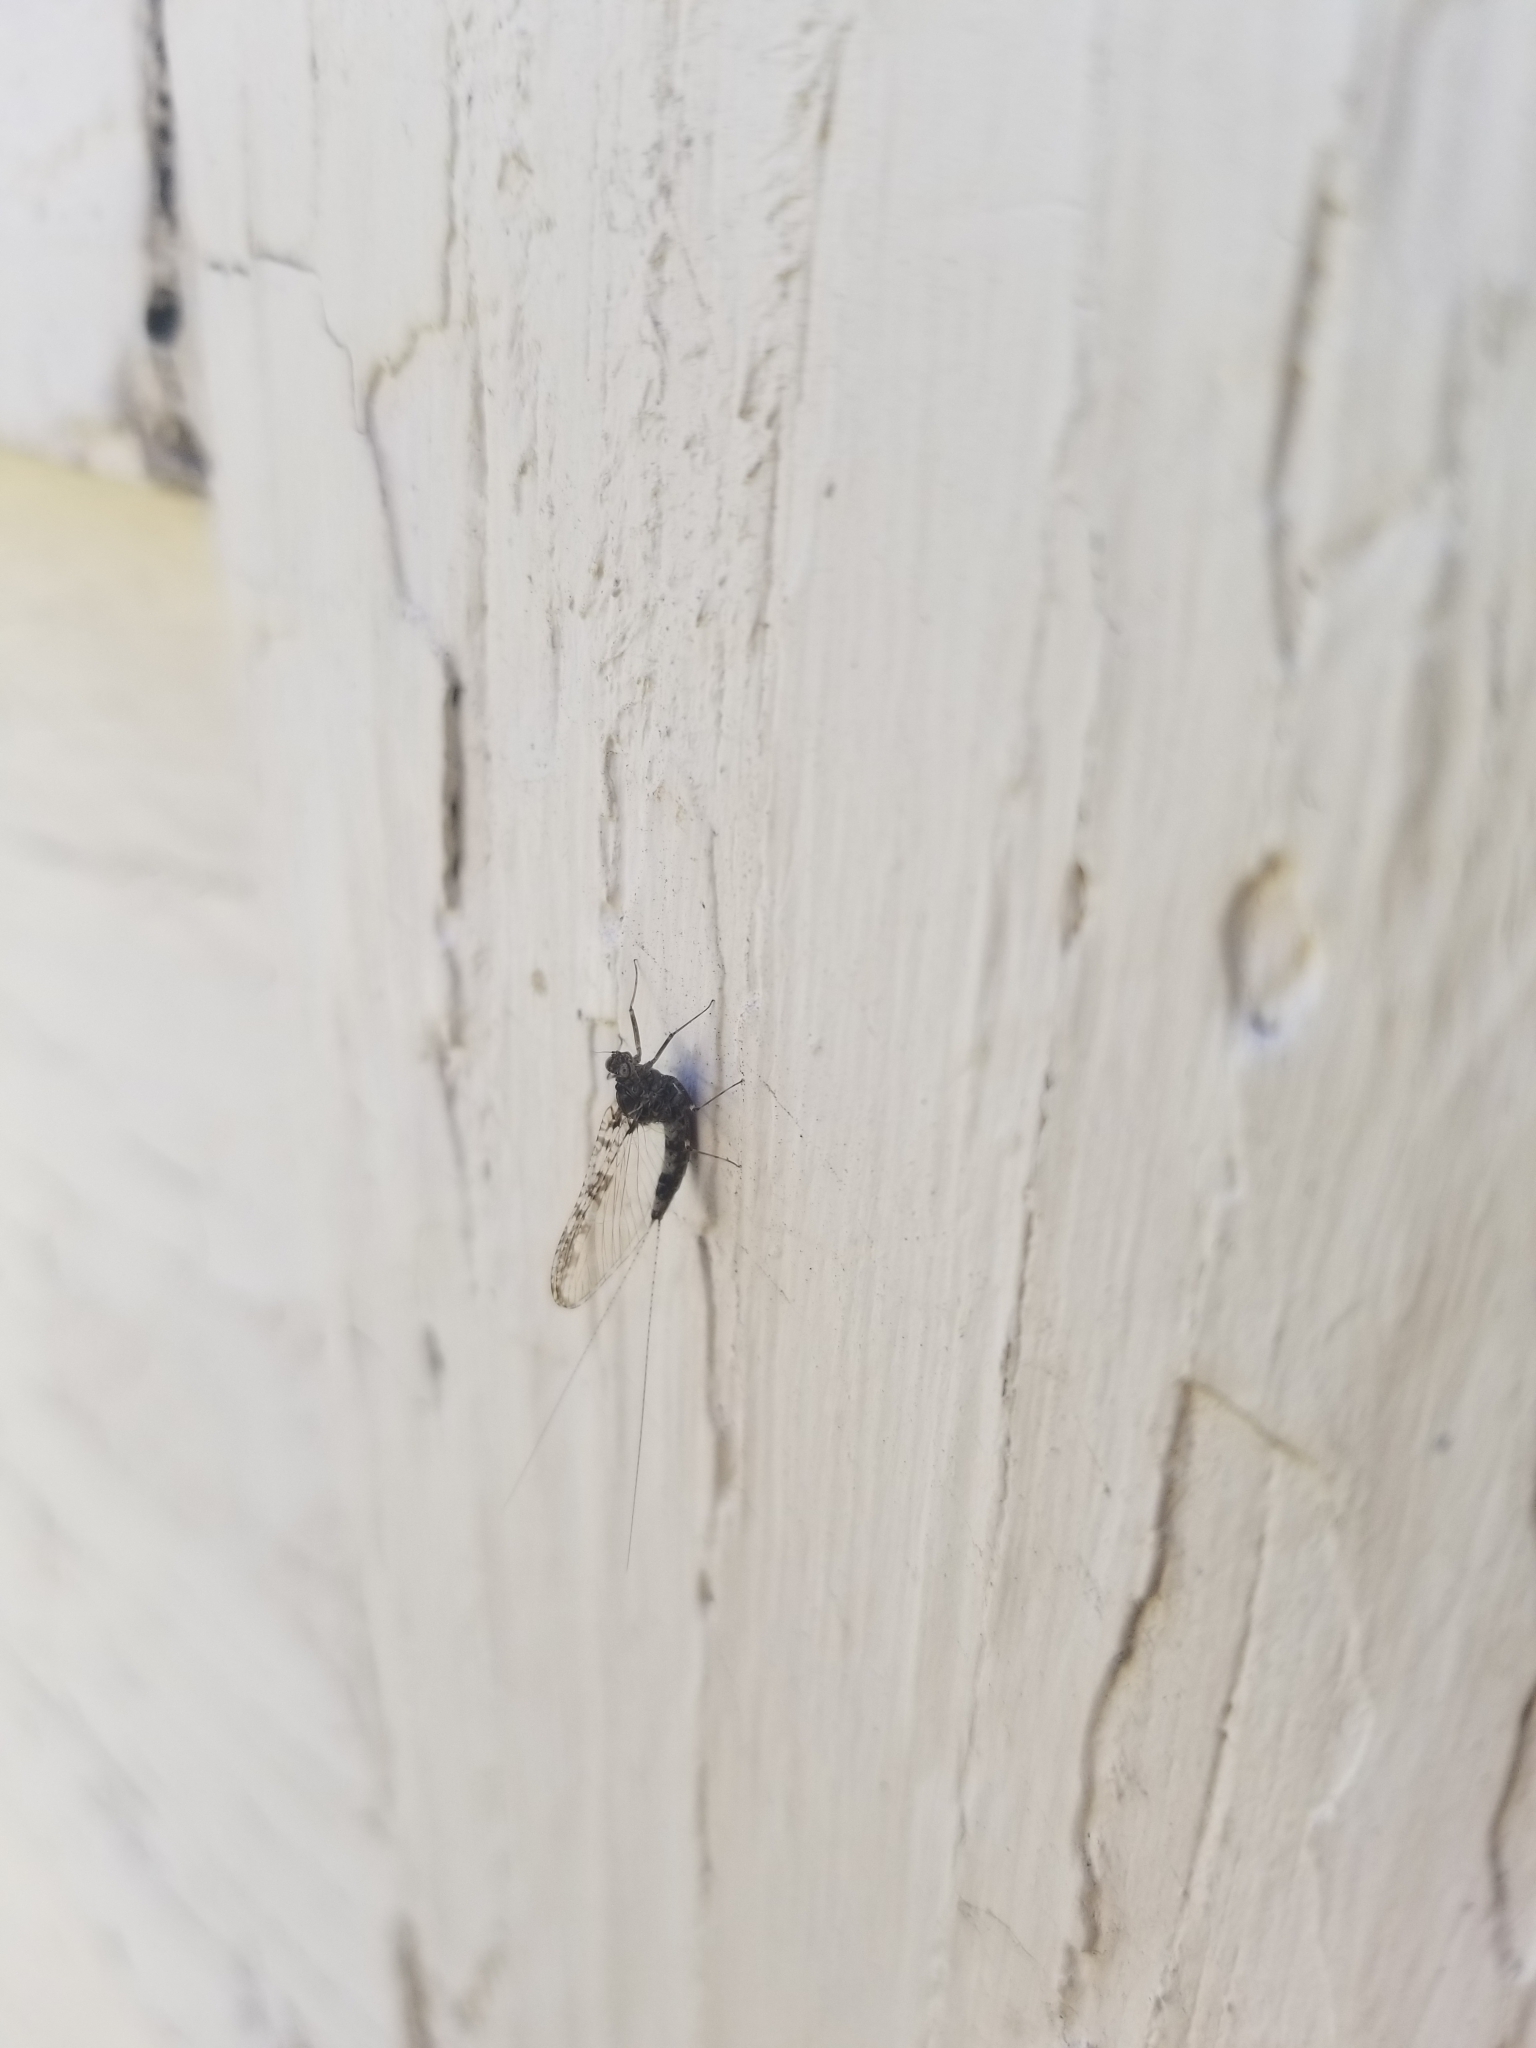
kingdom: Animalia
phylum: Arthropoda
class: Insecta
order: Ephemeroptera
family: Baetidae
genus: Callibaetis
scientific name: Callibaetis pictus
